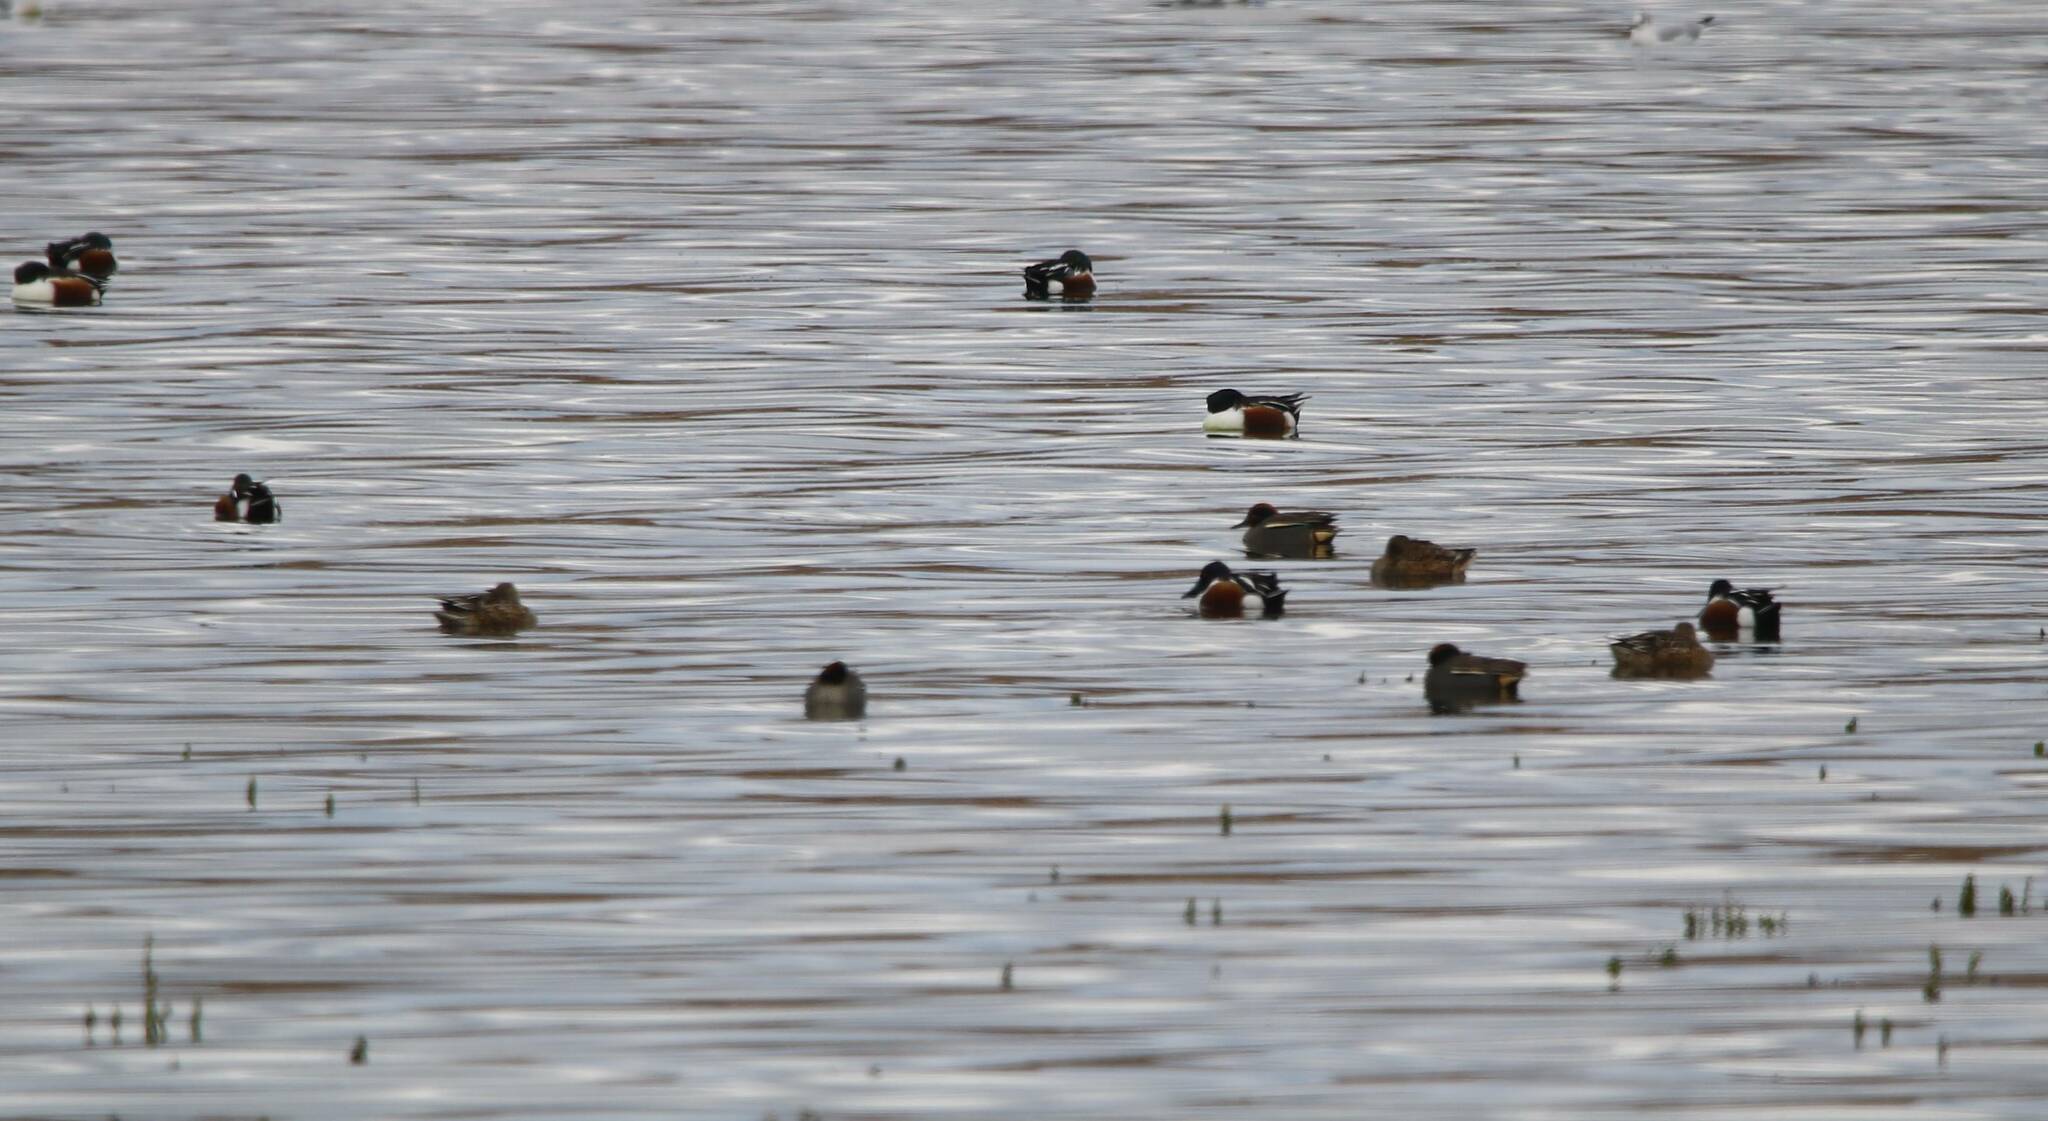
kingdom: Animalia
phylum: Chordata
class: Aves
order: Anseriformes
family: Anatidae
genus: Spatula
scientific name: Spatula clypeata
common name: Northern shoveler
